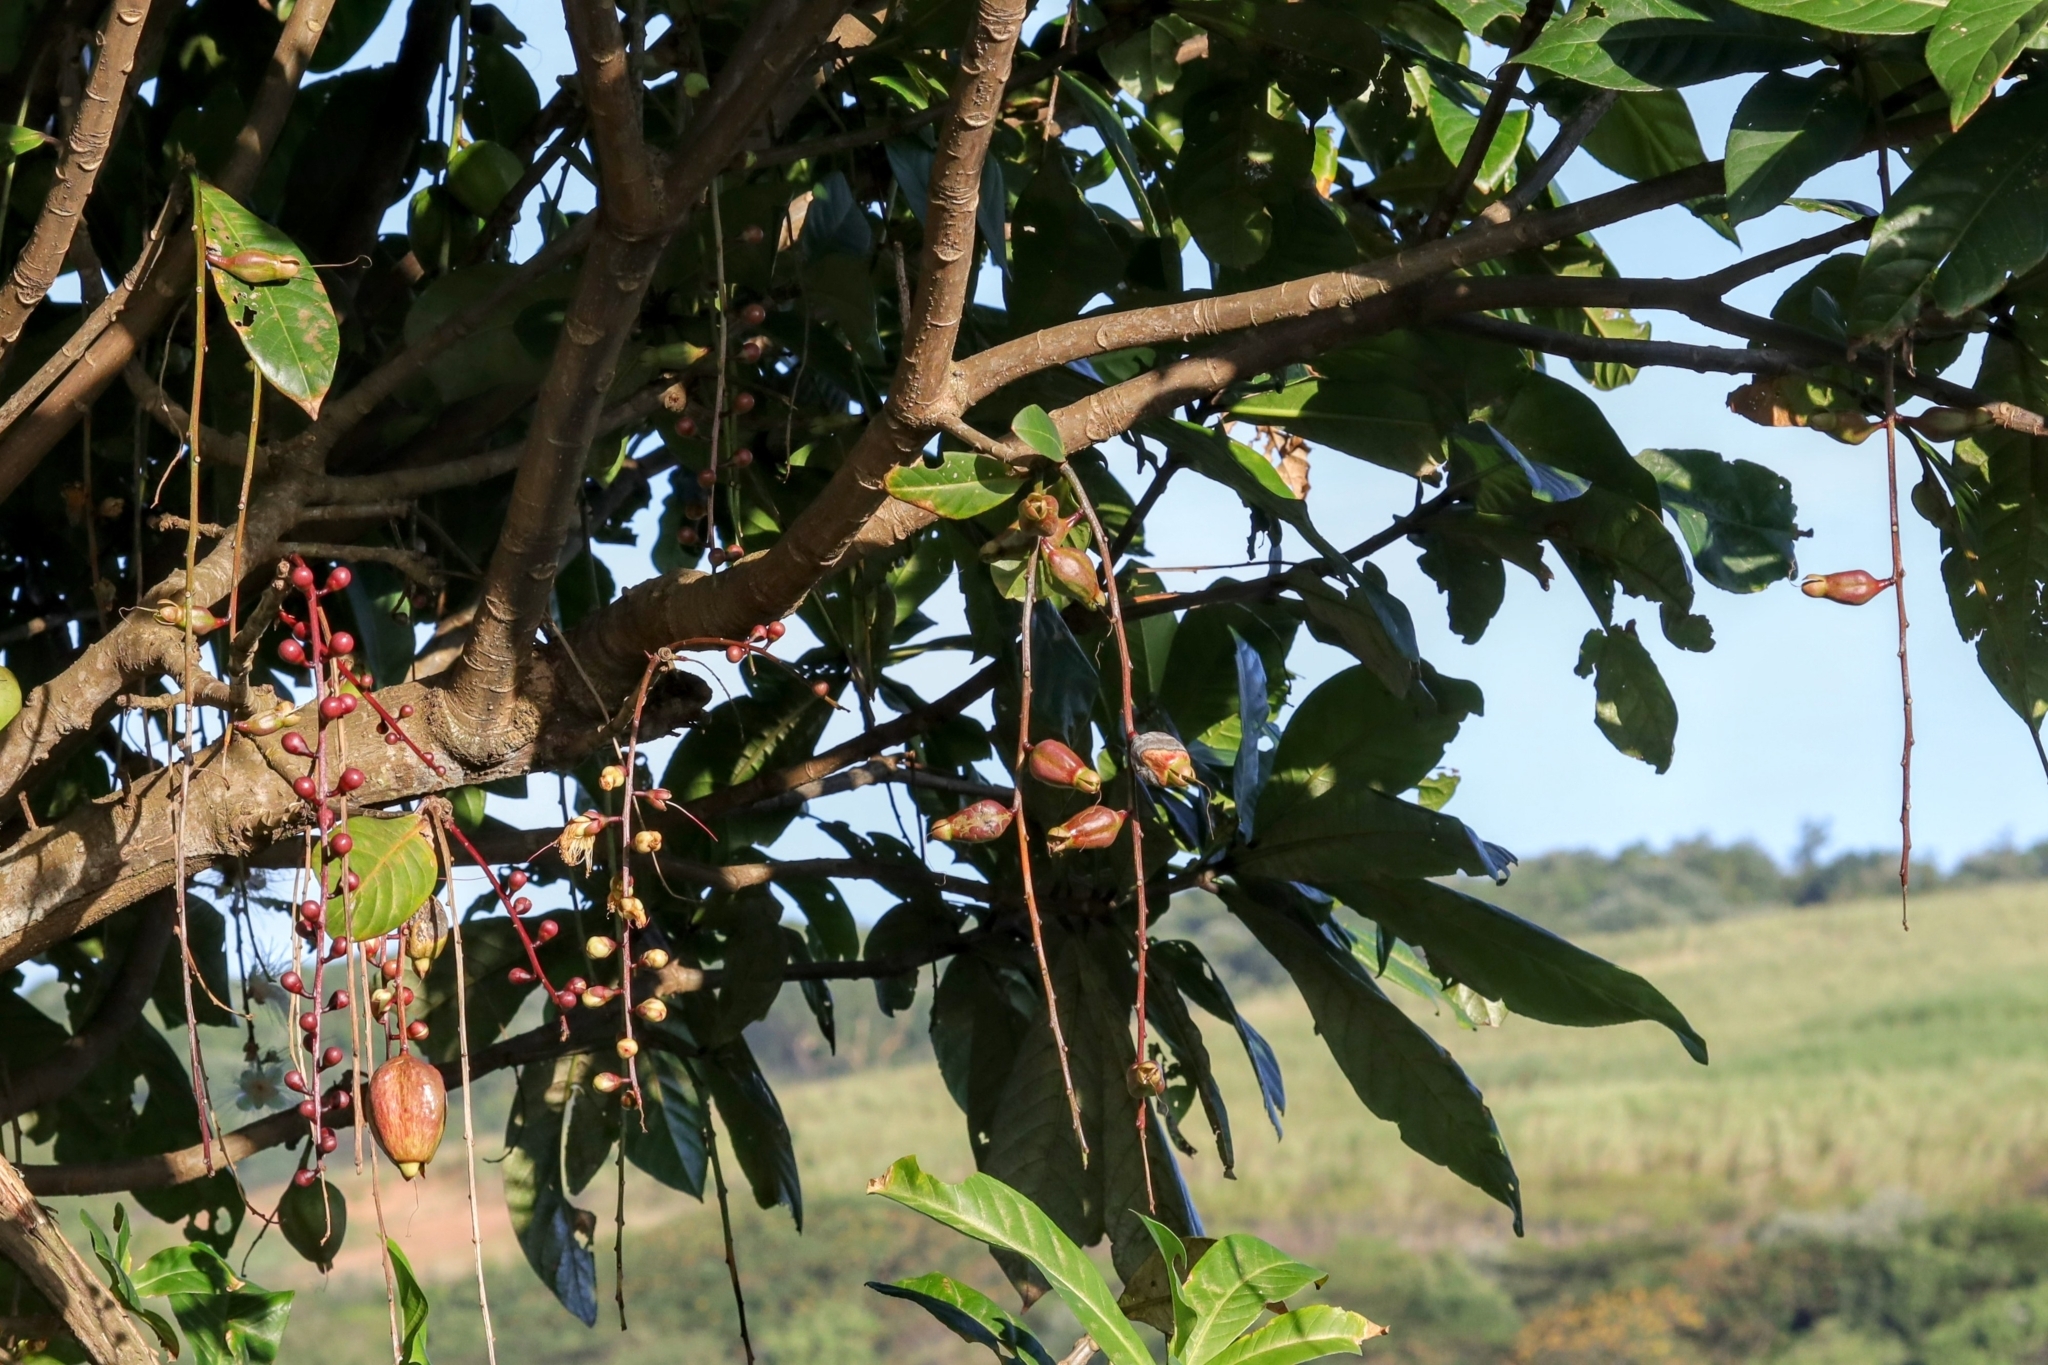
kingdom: Plantae
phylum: Tracheophyta
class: Magnoliopsida
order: Ericales
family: Lecythidaceae
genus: Barringtonia
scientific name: Barringtonia racemosa
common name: Brackwater mangrove
